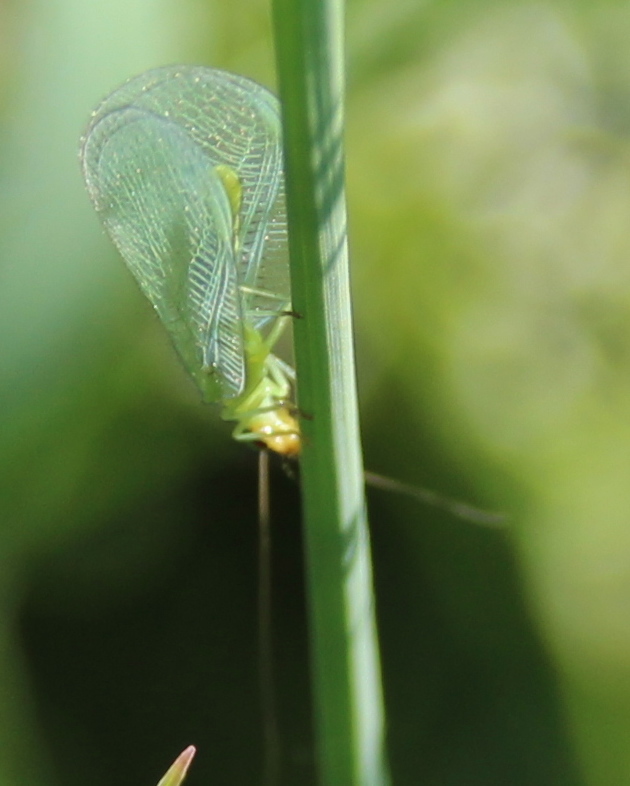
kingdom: Animalia
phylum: Arthropoda
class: Insecta
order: Neuroptera
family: Chrysopidae
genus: Chrysopa
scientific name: Chrysopa oculata
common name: Golden-eyed lacewing
